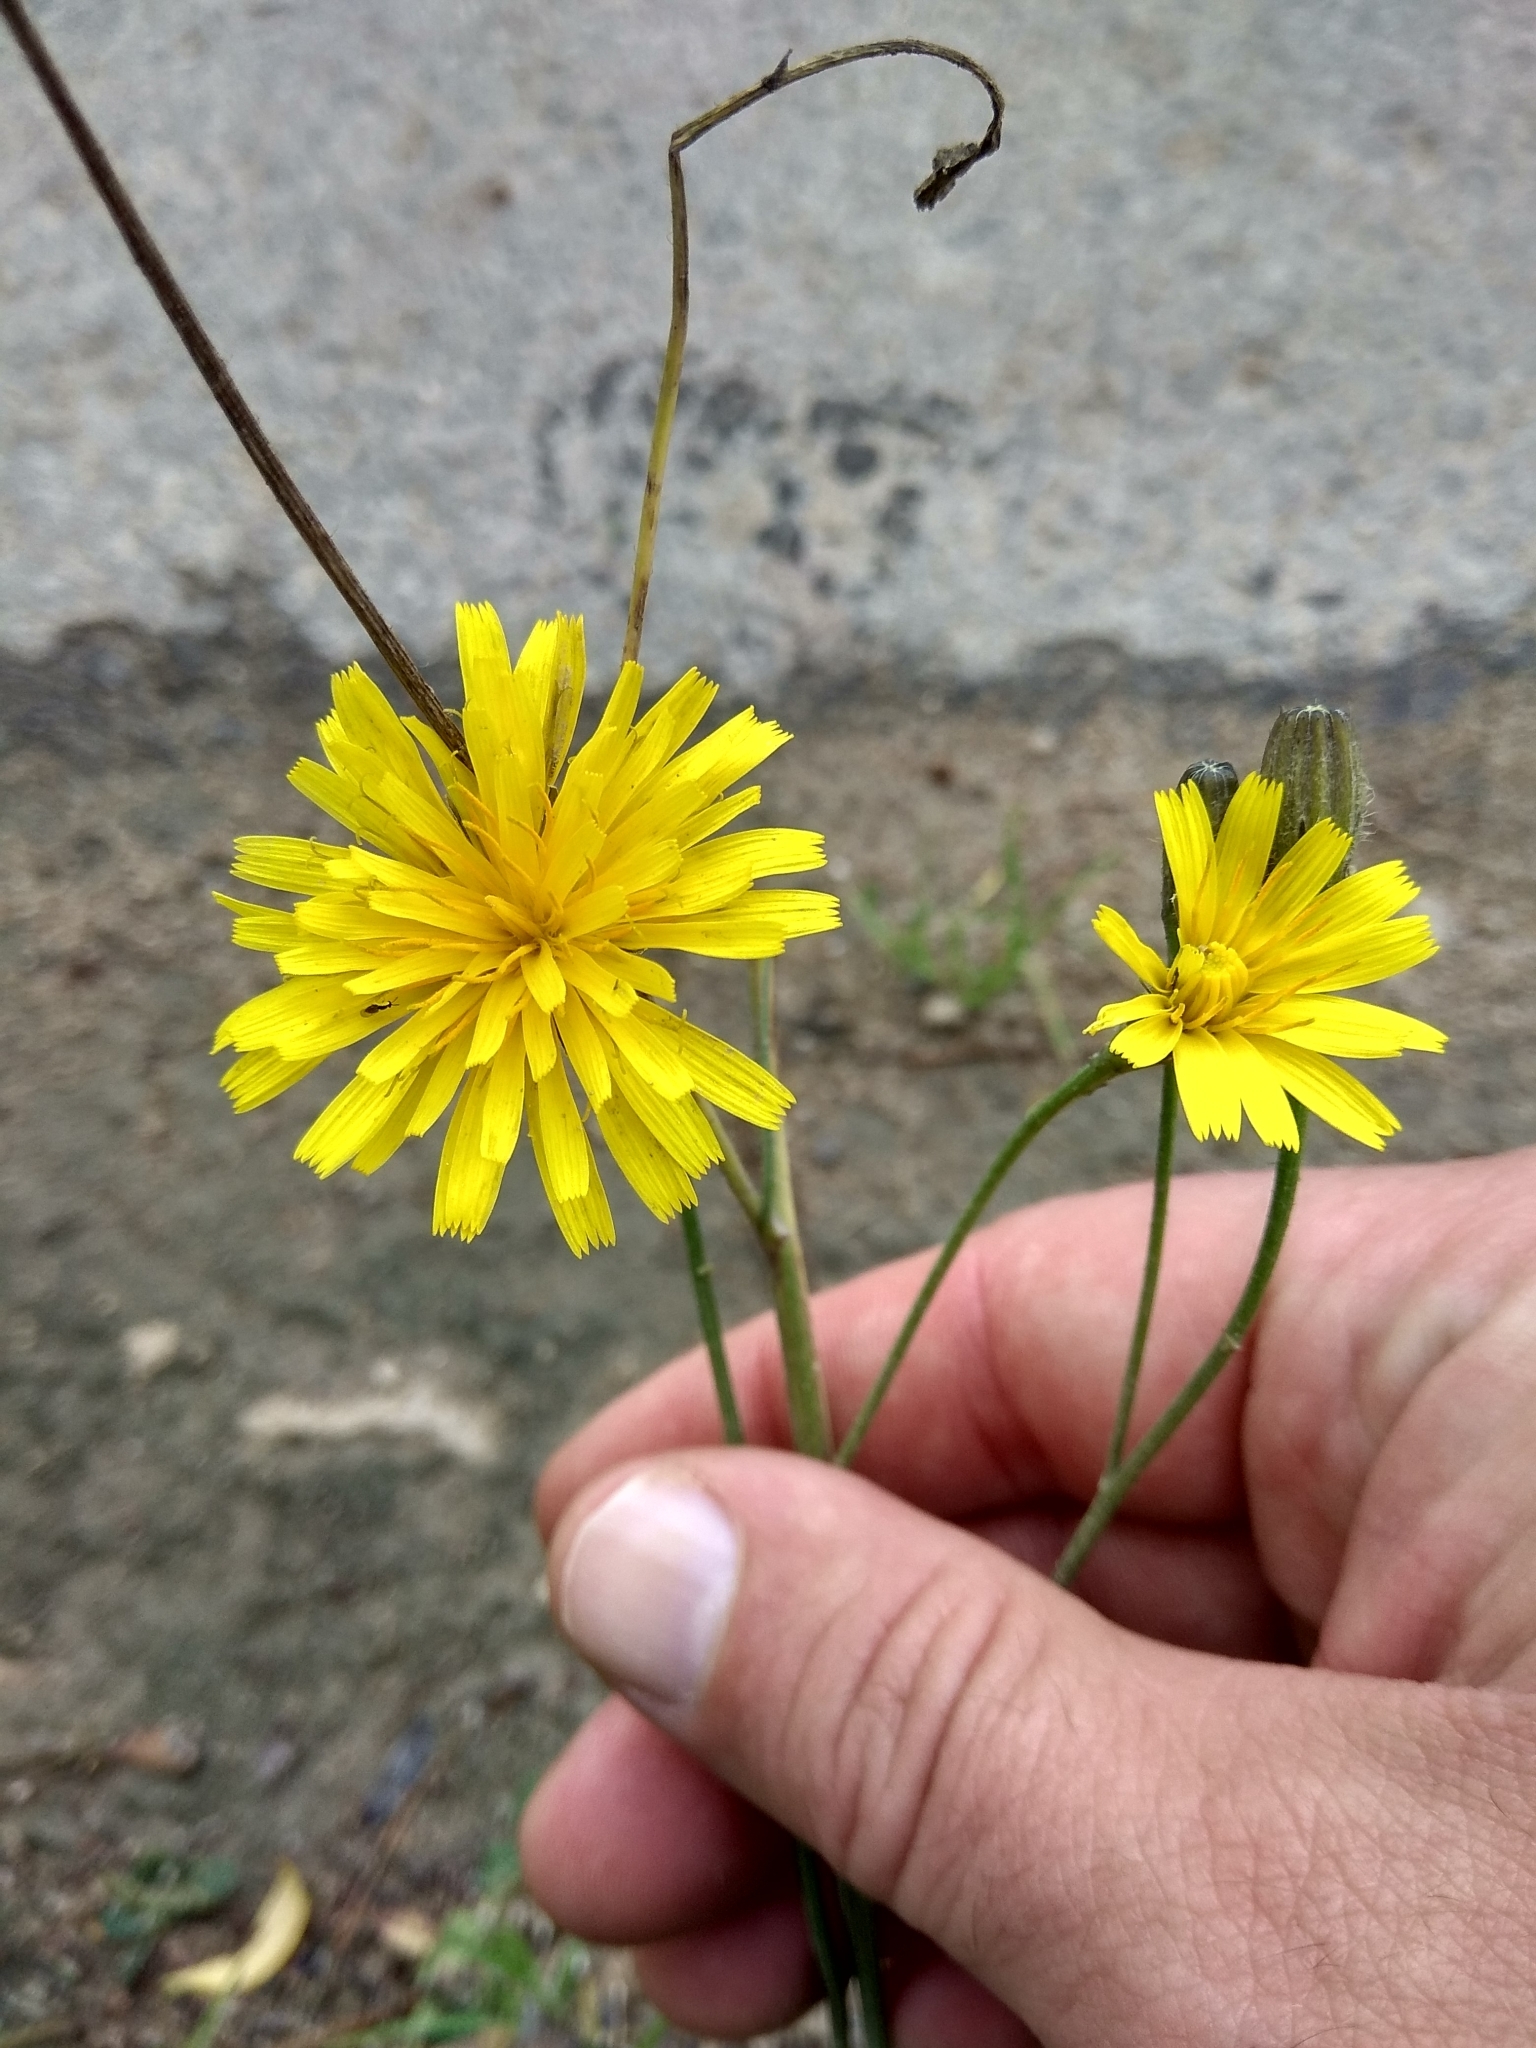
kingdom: Plantae
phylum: Tracheophyta
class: Magnoliopsida
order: Asterales
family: Asteraceae
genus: Scorzoneroides
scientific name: Scorzoneroides autumnalis
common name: Autumn hawkbit
